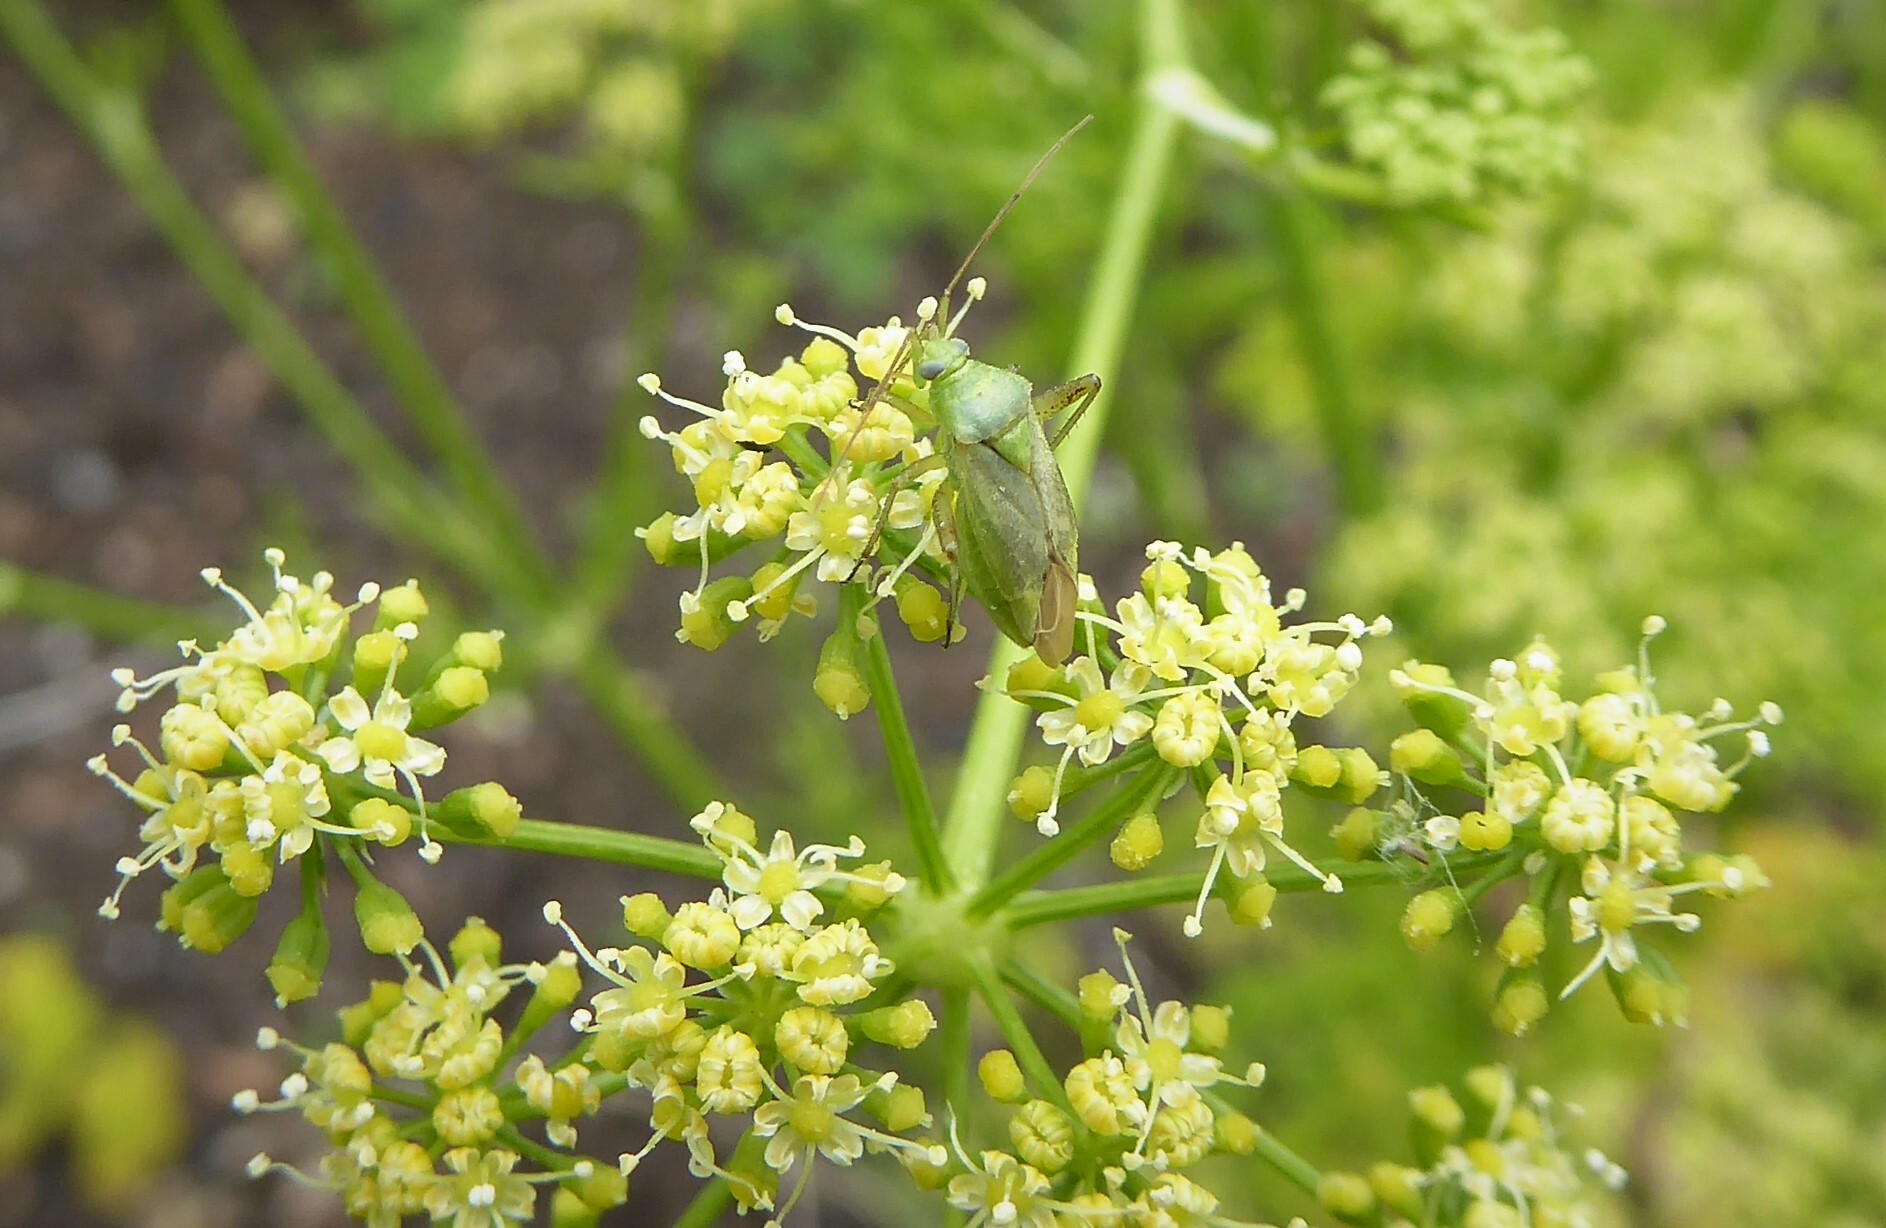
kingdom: Animalia
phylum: Arthropoda
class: Insecta
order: Hemiptera
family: Miridae
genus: Closterotomus
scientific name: Closterotomus norvegicus
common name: Plant bug
